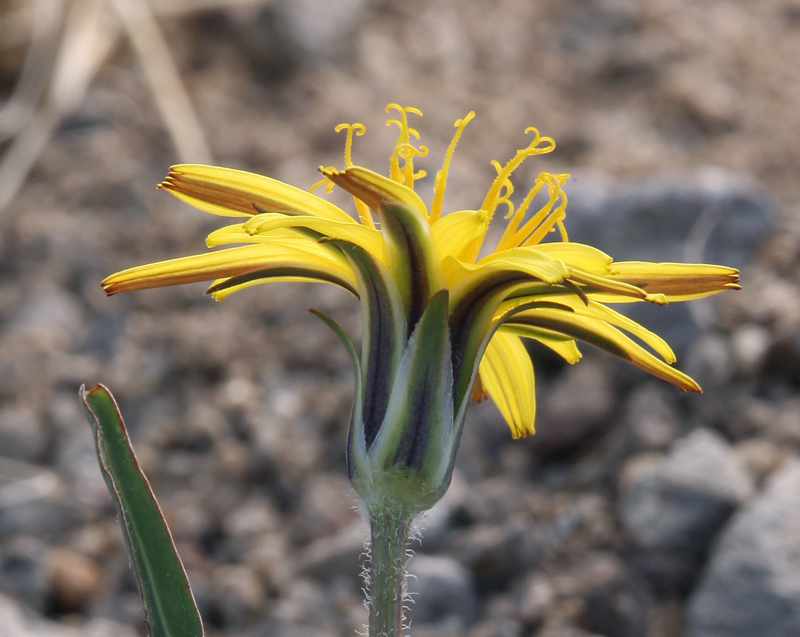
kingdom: Plantae
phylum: Tracheophyta
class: Magnoliopsida
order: Asterales
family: Asteraceae
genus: Agoseris
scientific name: Agoseris parviflora
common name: Steppe agoseris
